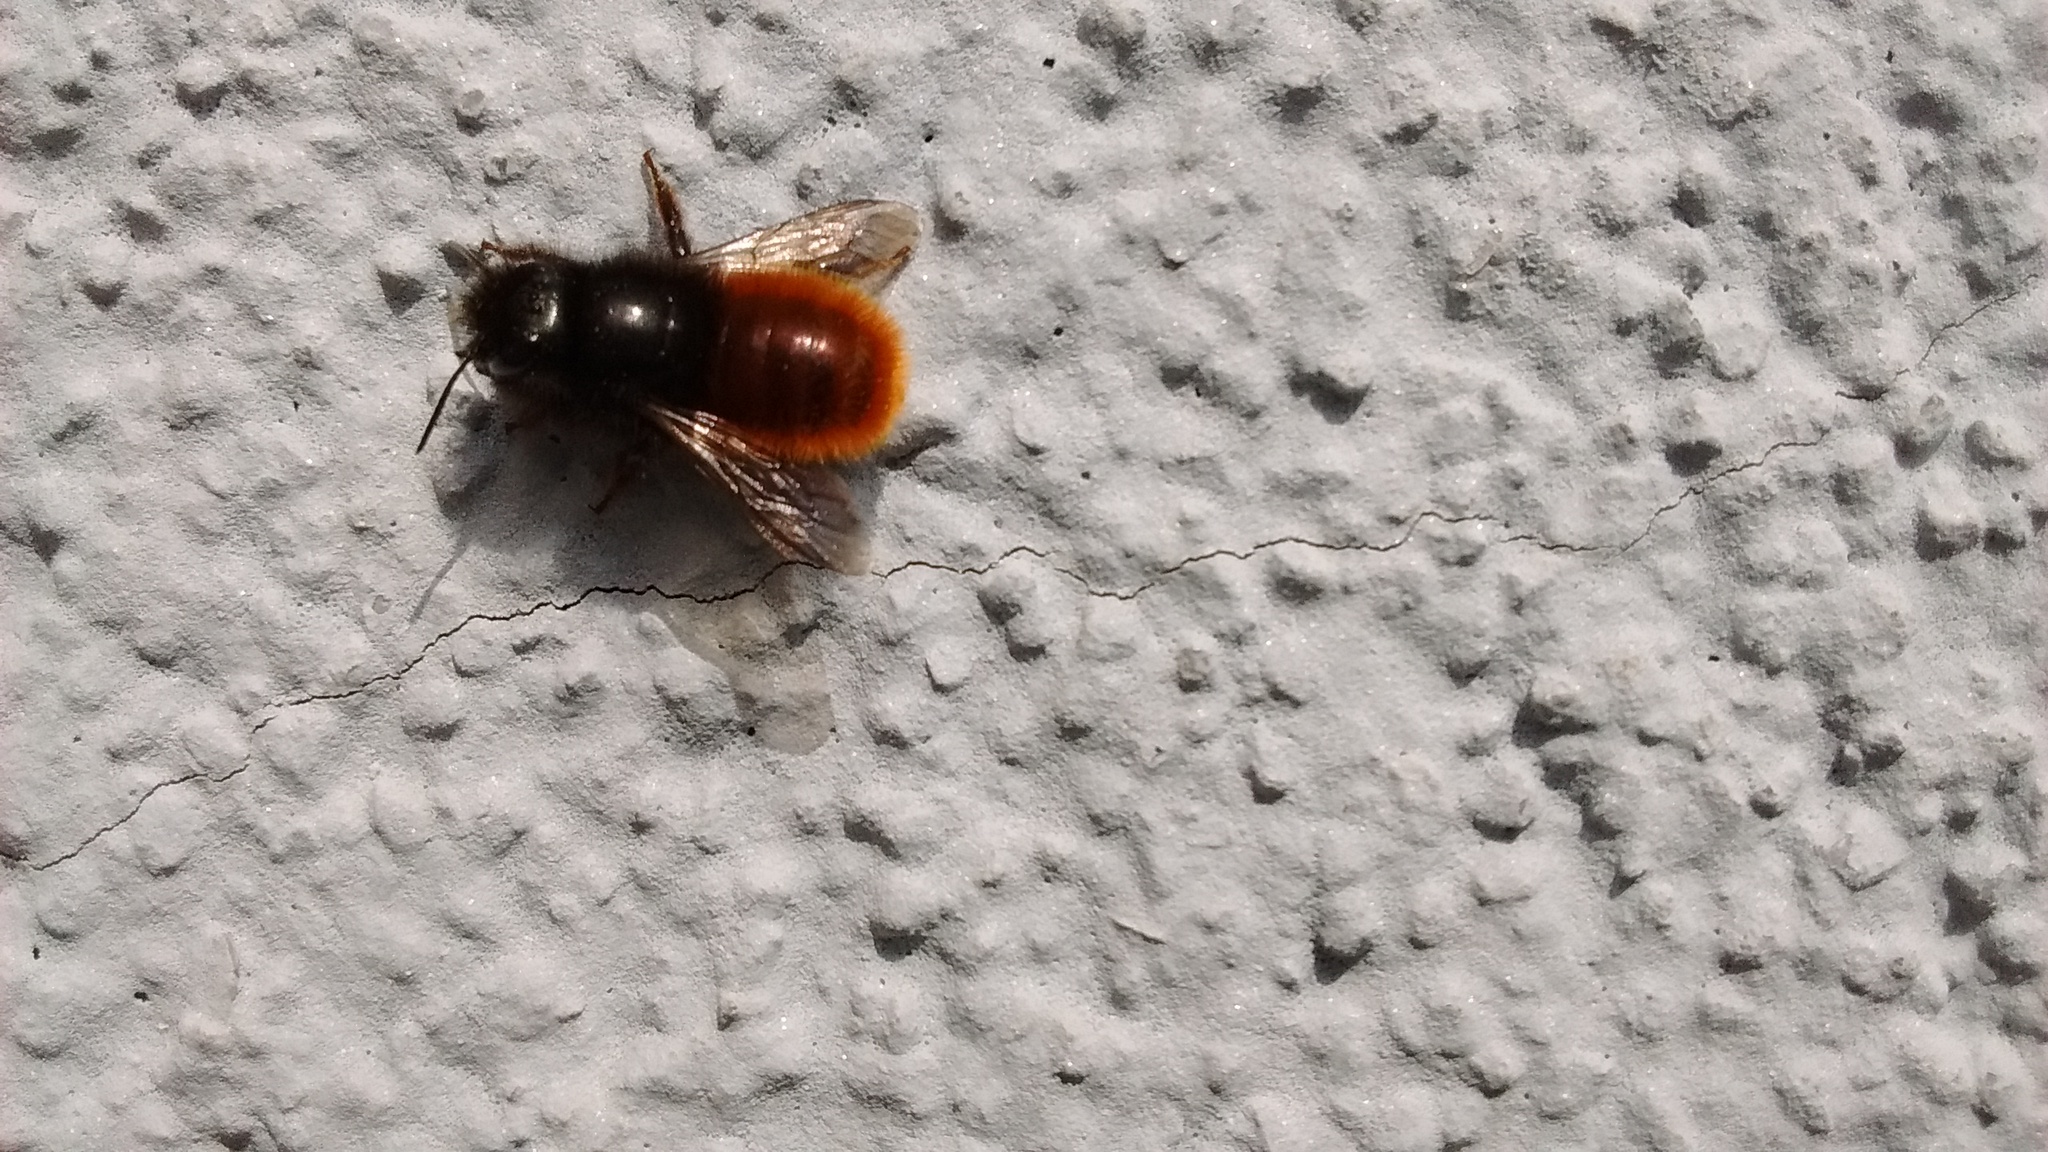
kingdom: Animalia
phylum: Arthropoda
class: Insecta
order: Hymenoptera
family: Megachilidae
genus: Osmia
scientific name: Osmia cornuta
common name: Mason bee
